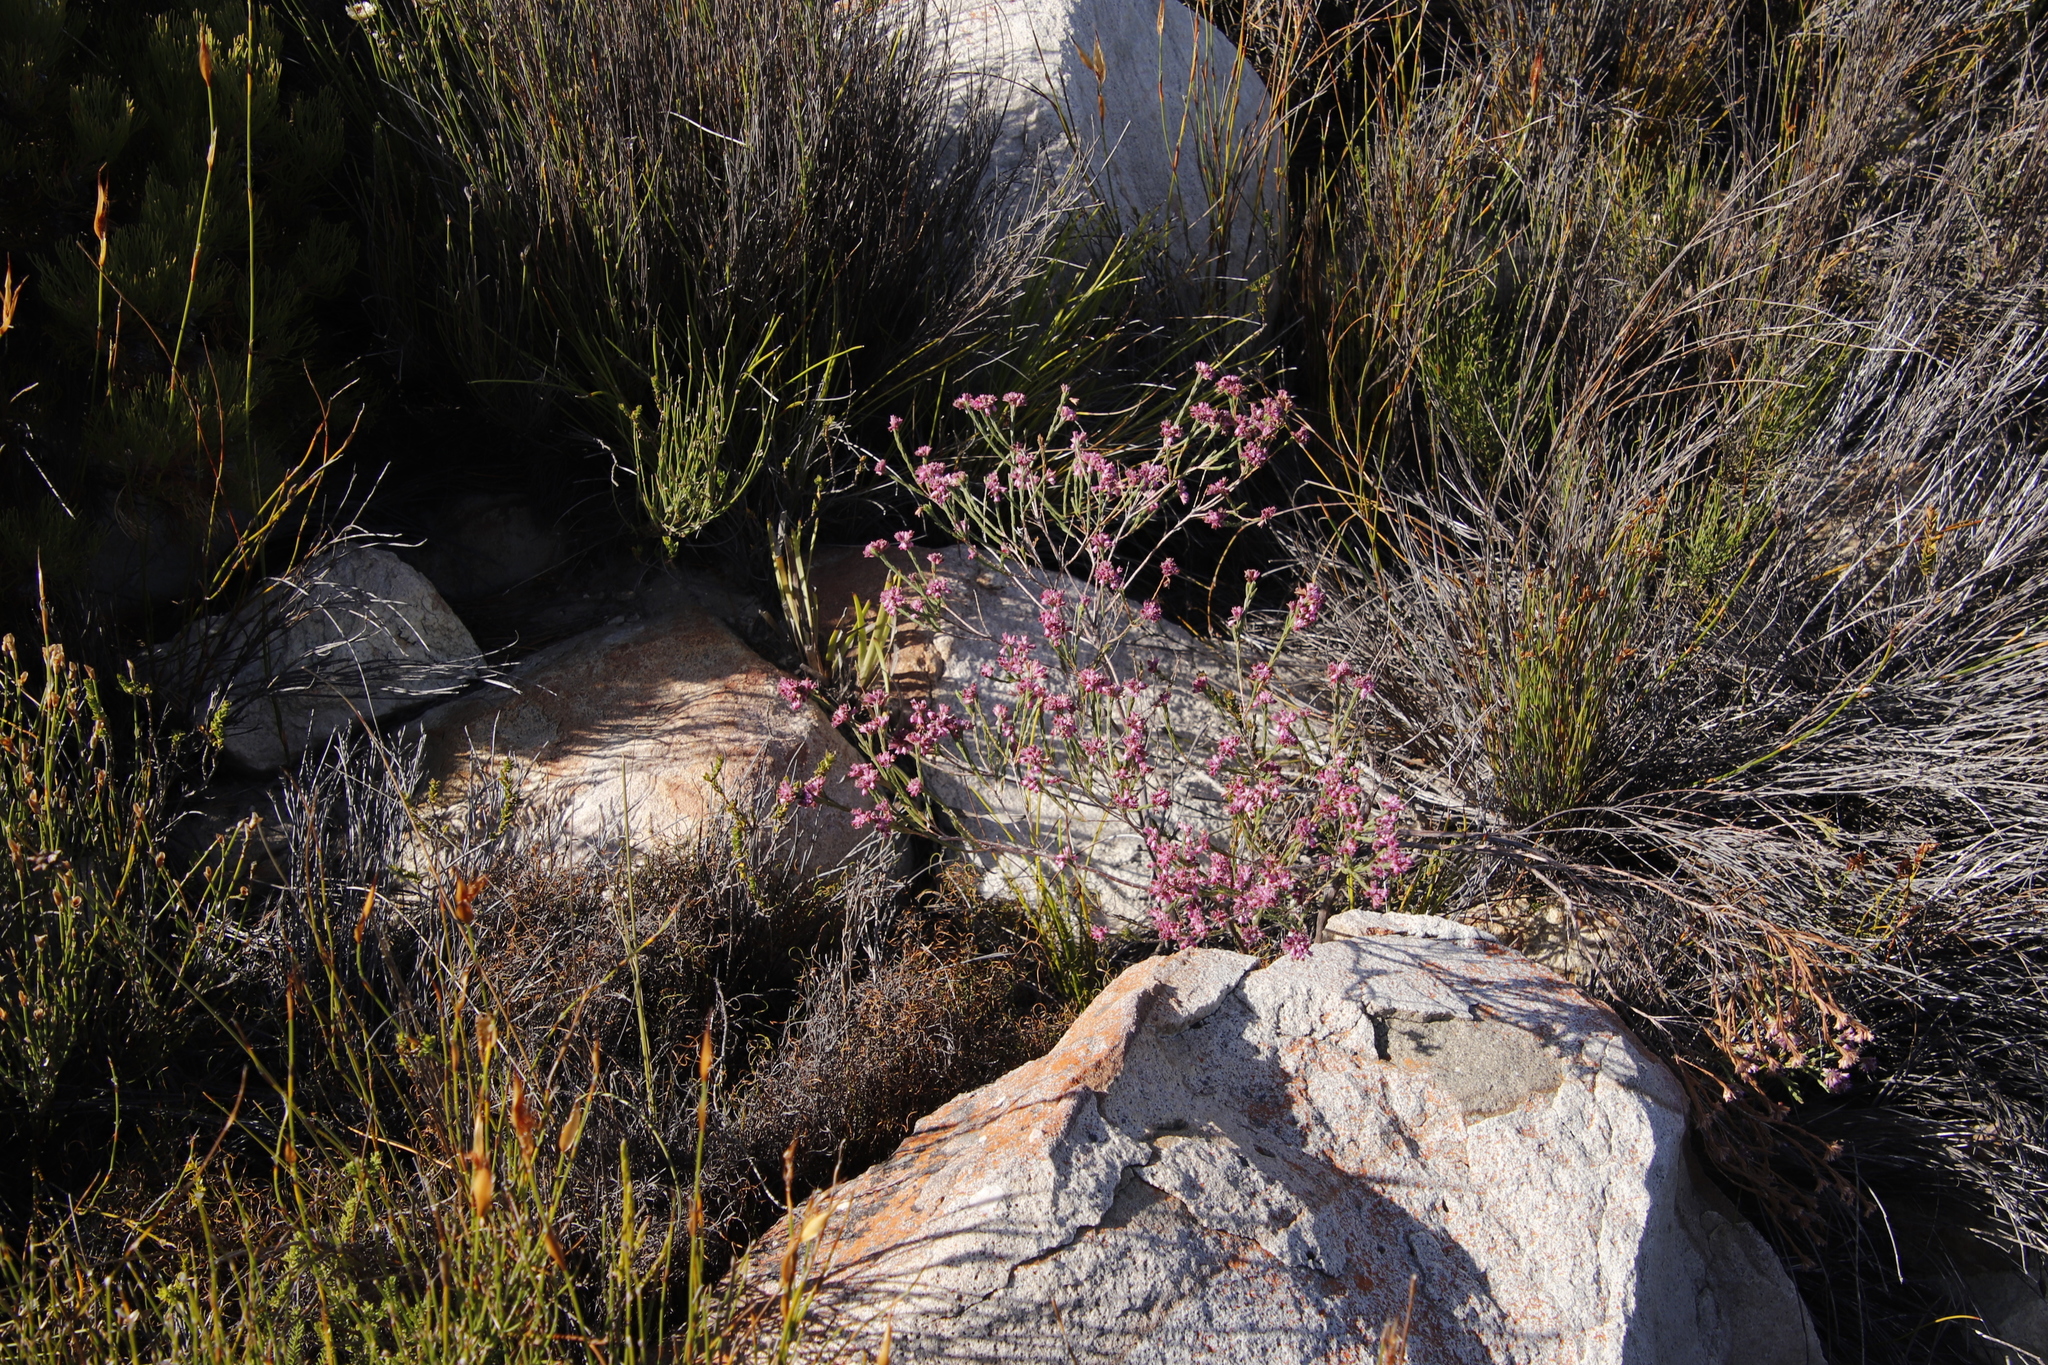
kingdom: Plantae
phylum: Tracheophyta
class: Magnoliopsida
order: Ericales
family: Ericaceae
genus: Erica
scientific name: Erica corifolia
